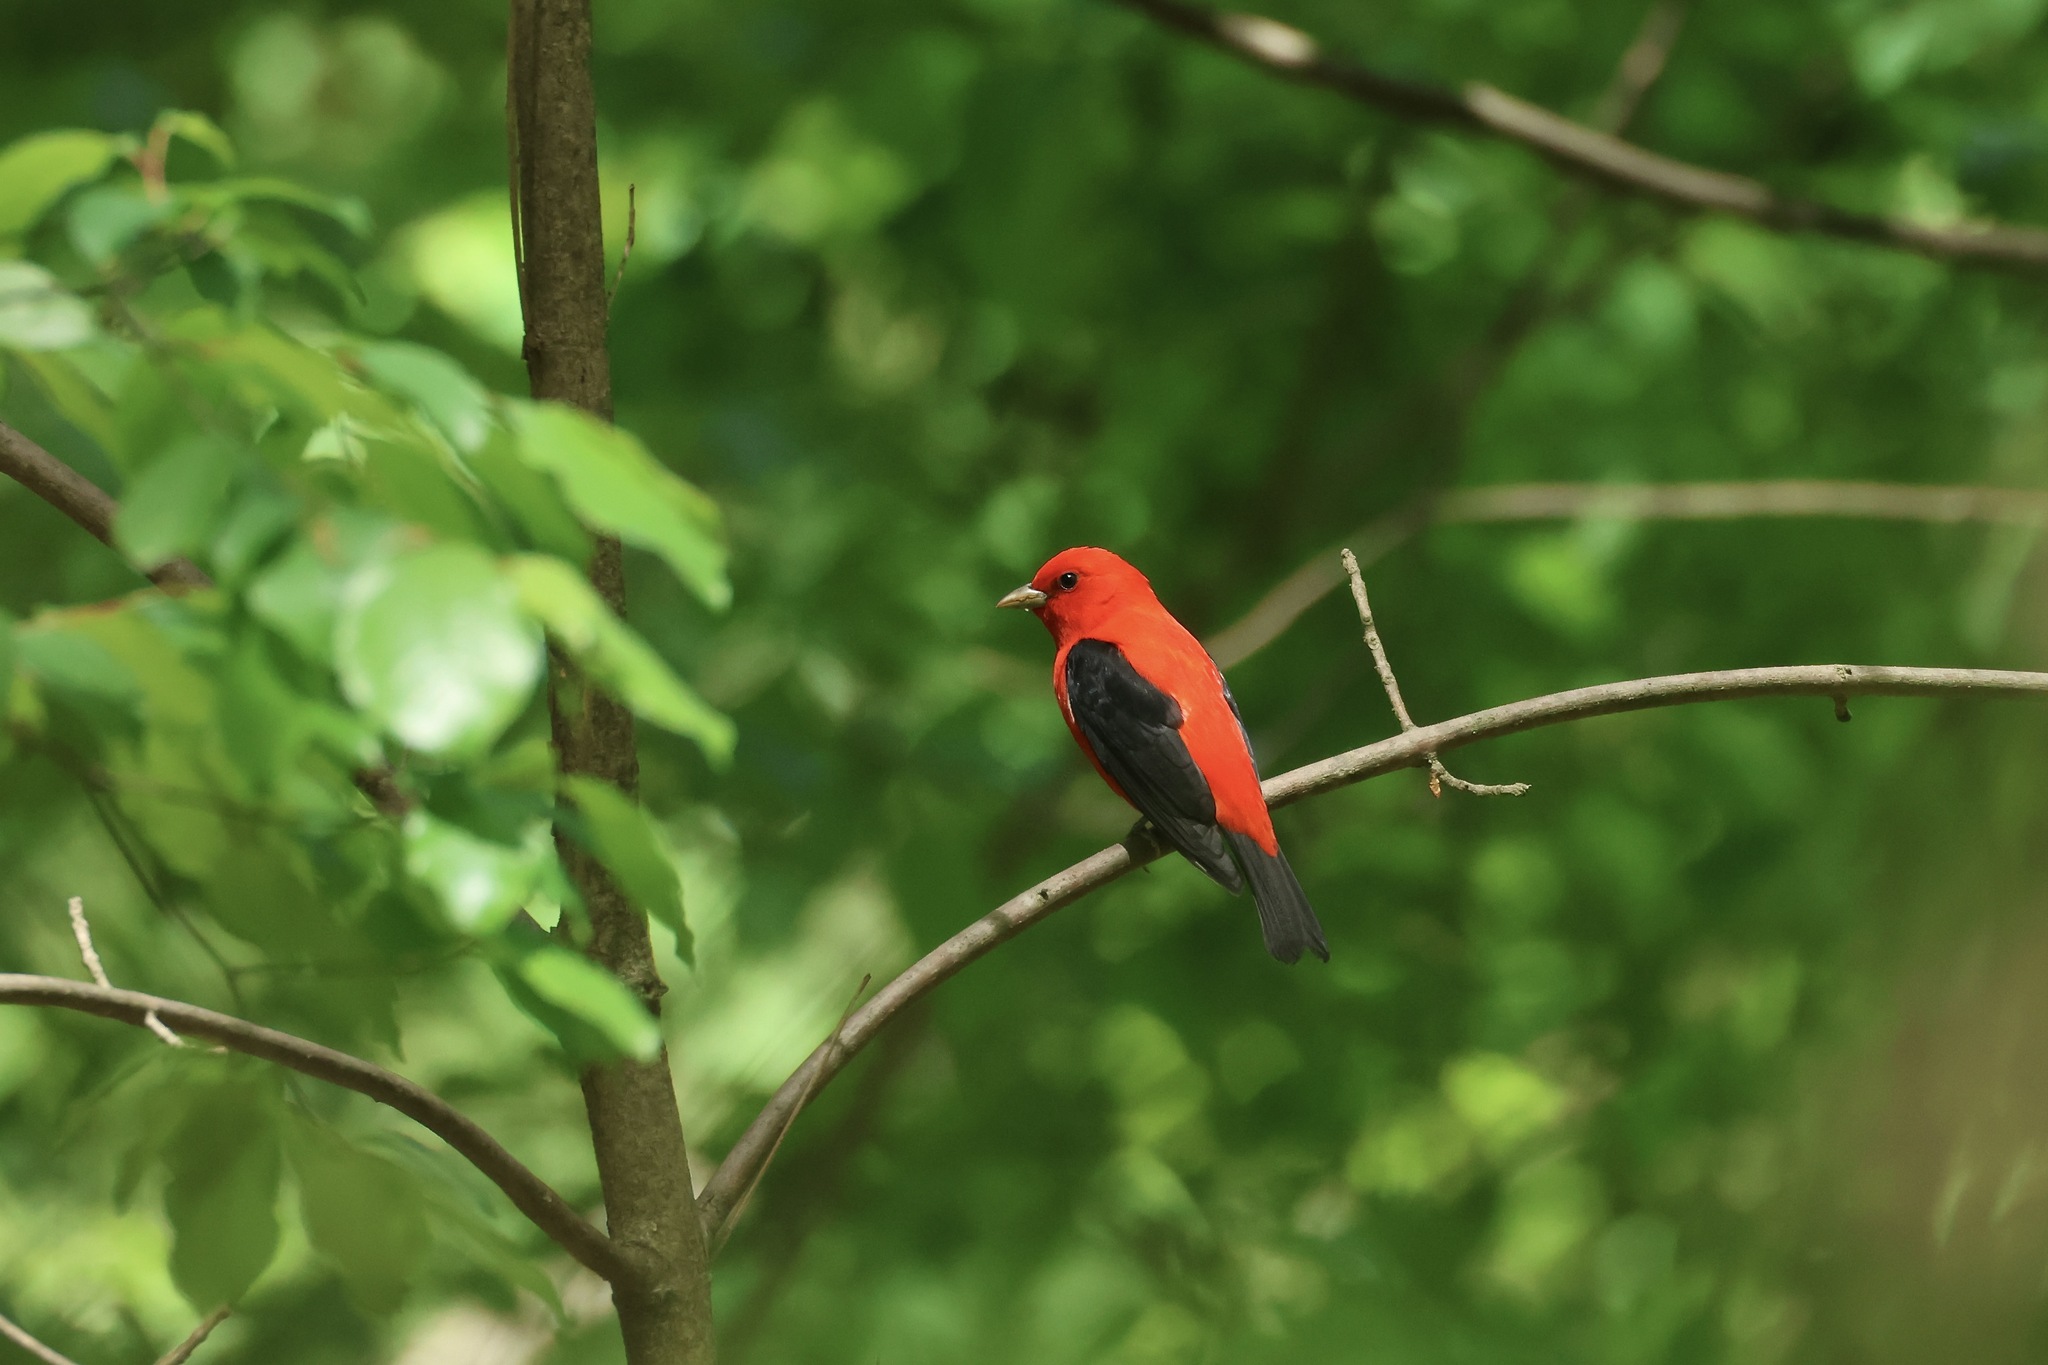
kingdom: Animalia
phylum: Chordata
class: Aves
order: Passeriformes
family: Cardinalidae
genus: Piranga
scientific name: Piranga olivacea
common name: Scarlet tanager
